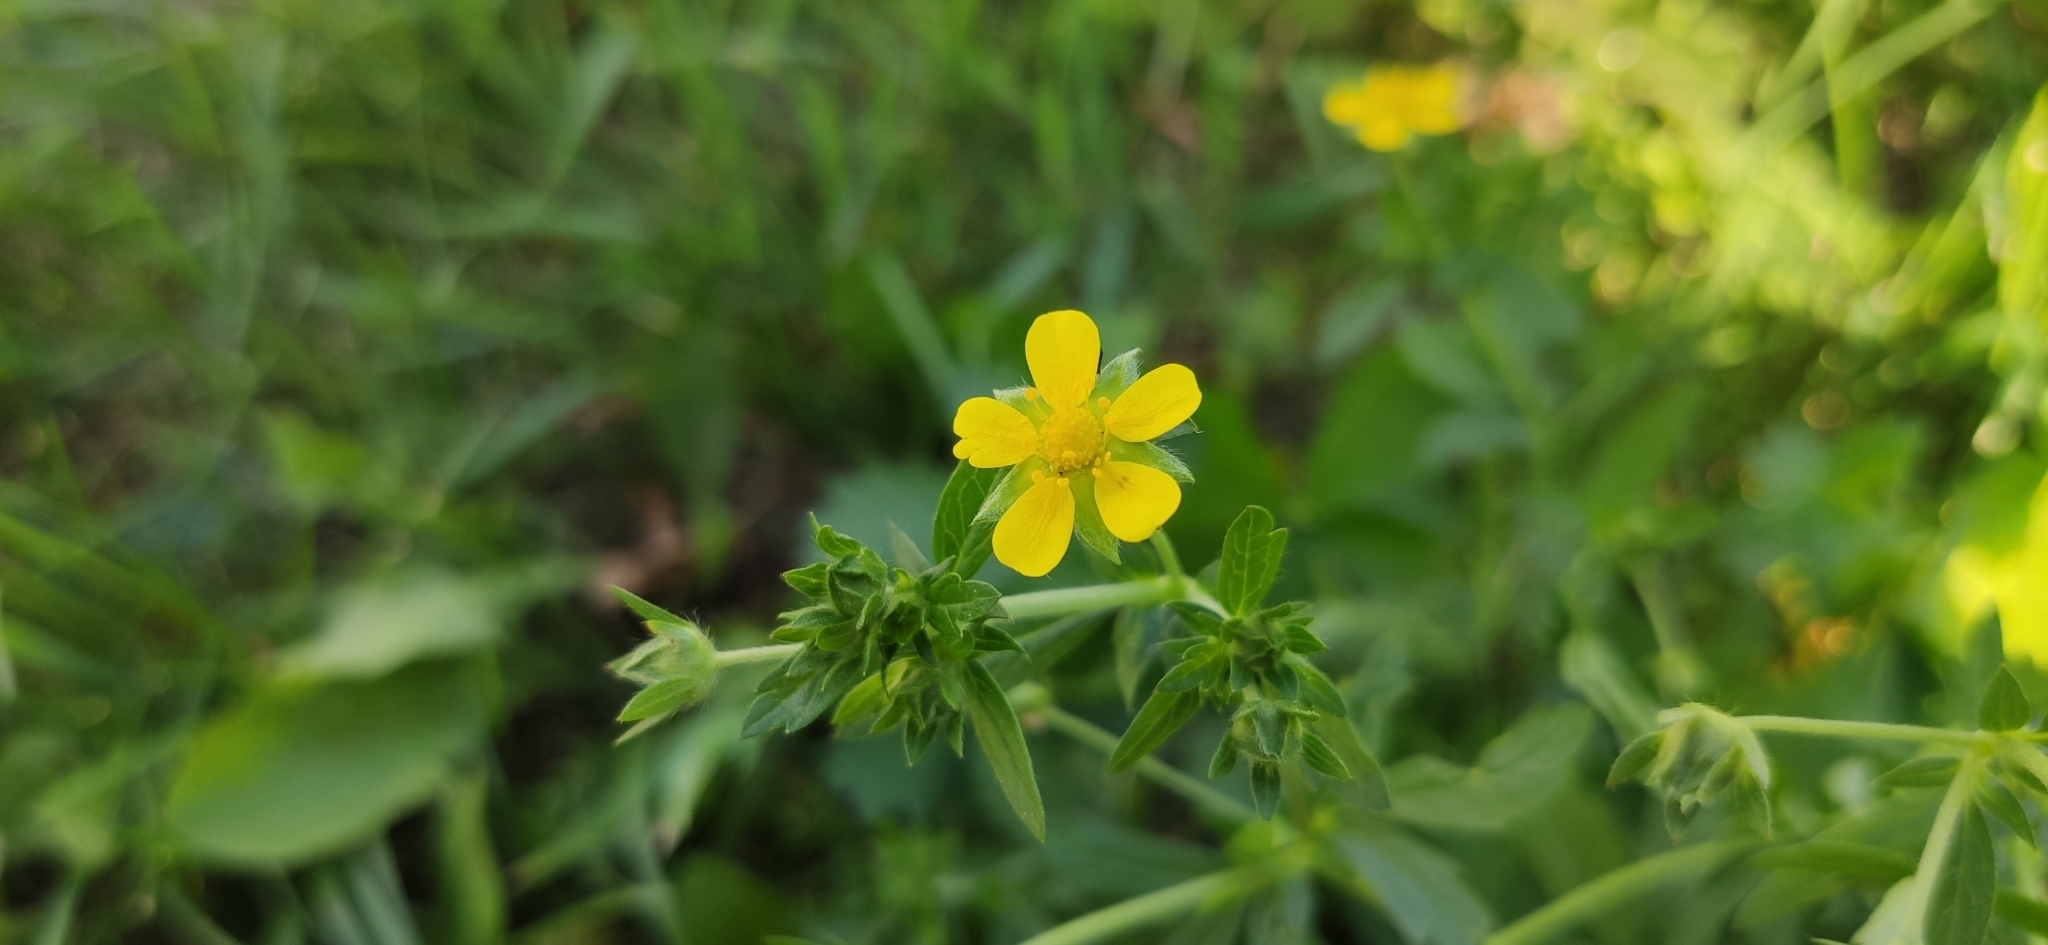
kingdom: Plantae
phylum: Tracheophyta
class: Magnoliopsida
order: Rosales
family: Rosaceae
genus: Potentilla
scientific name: Potentilla argentea
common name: Hoary cinquefoil
